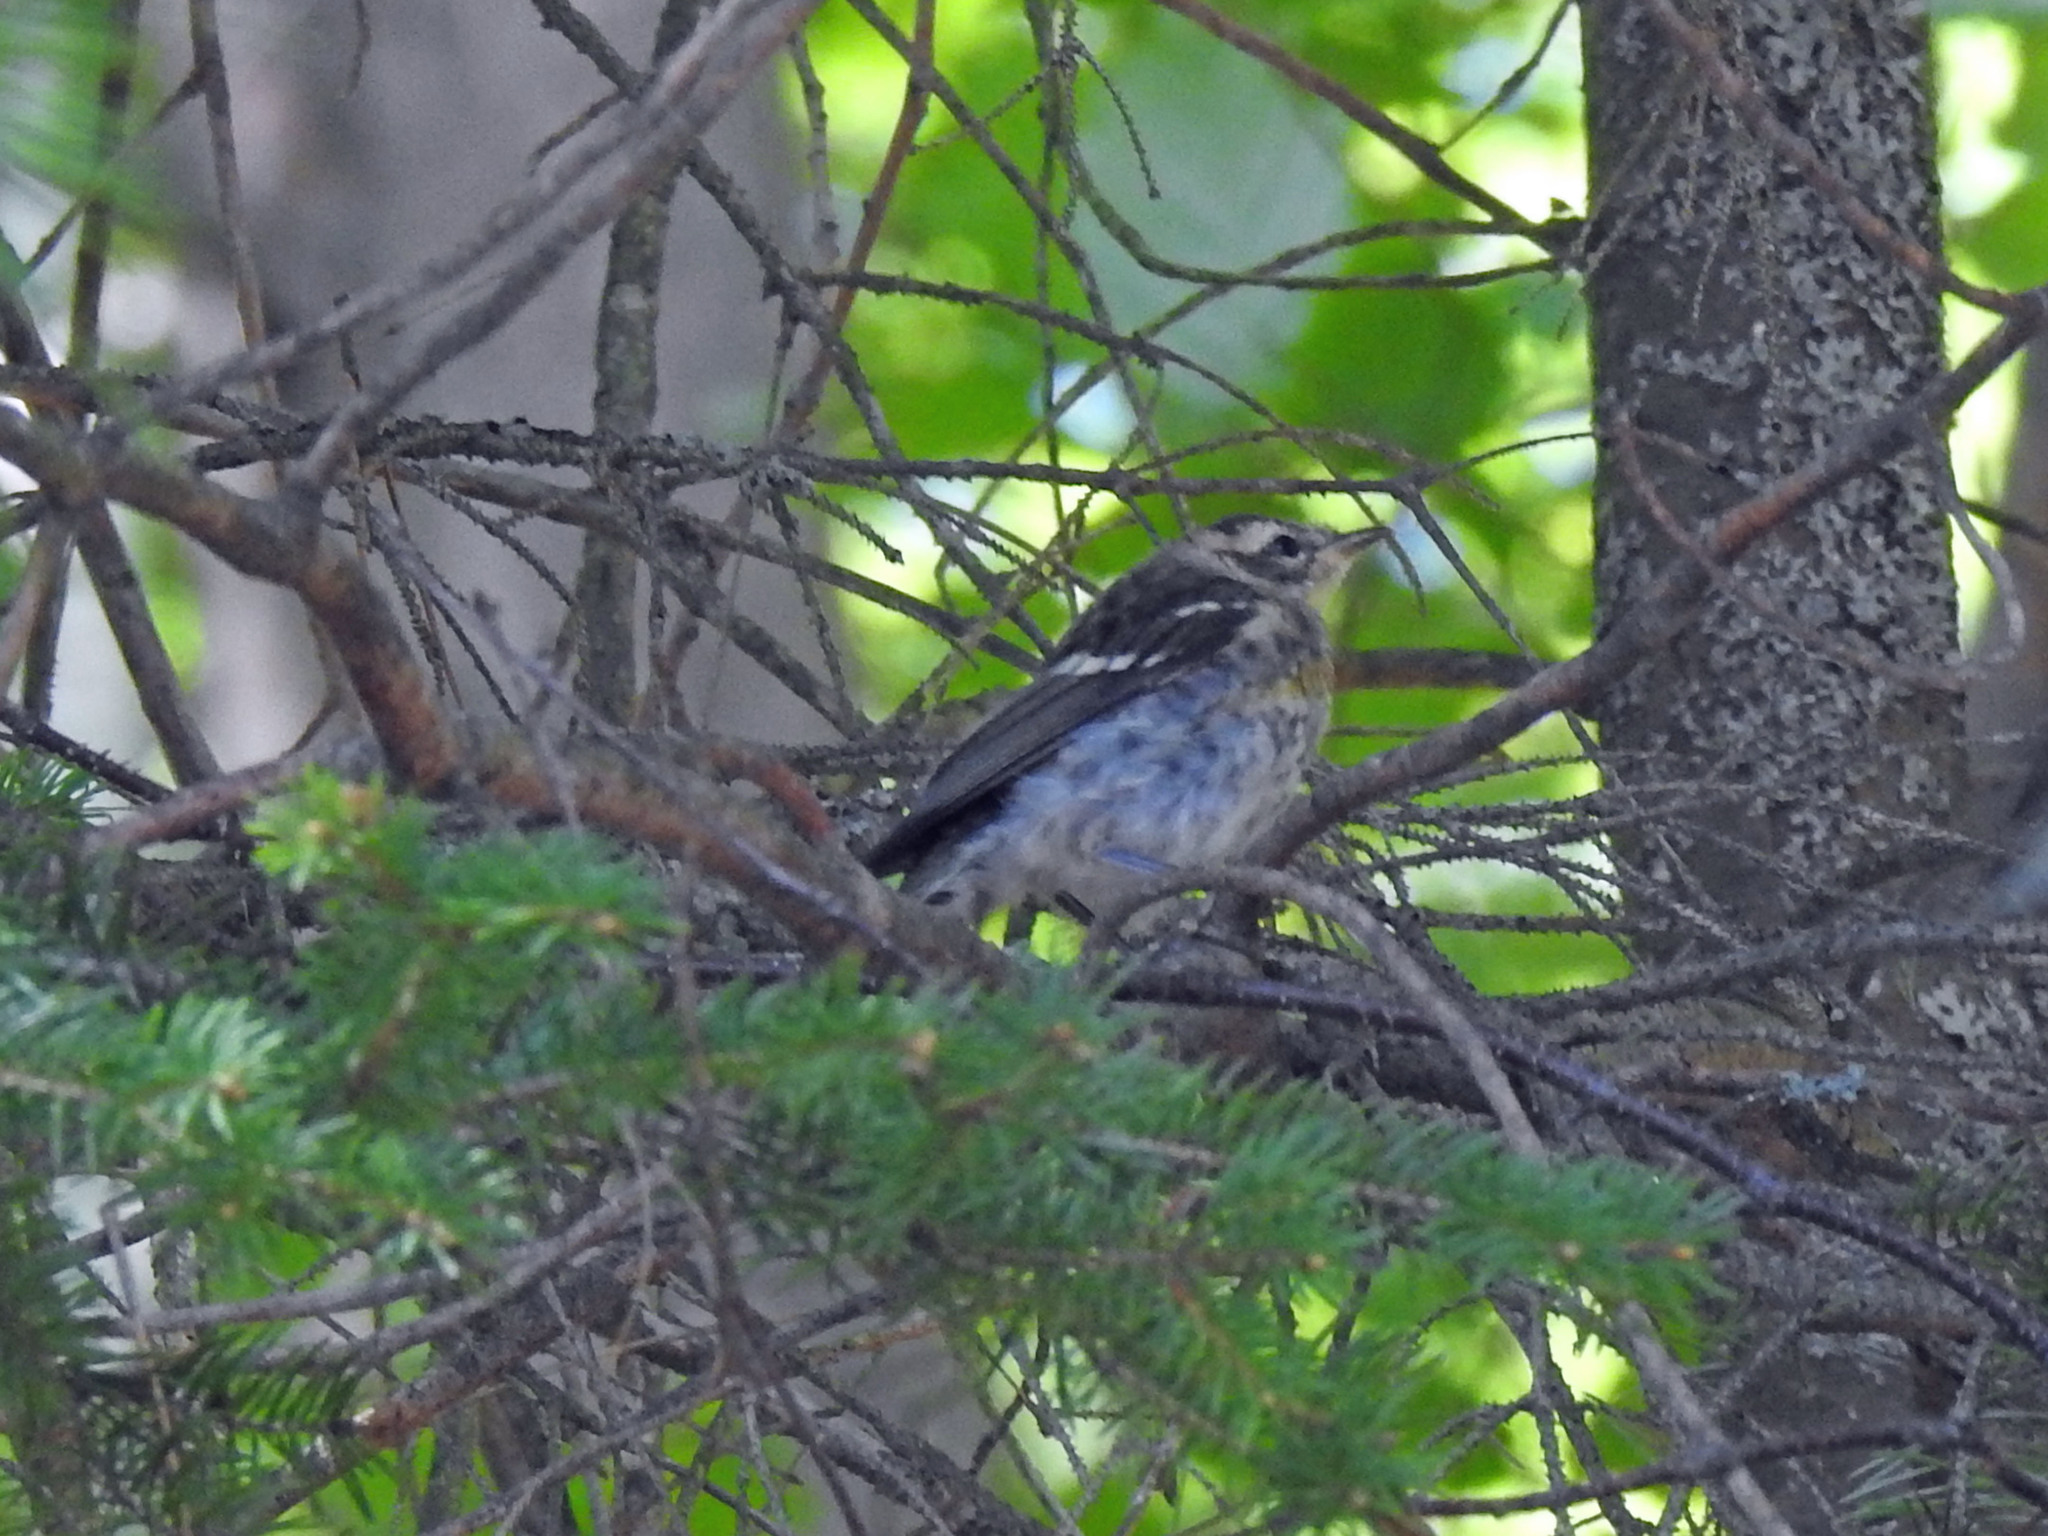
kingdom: Animalia
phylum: Chordata
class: Aves
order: Passeriformes
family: Parulidae
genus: Setophaga
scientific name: Setophaga fusca
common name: Blackburnian warbler
